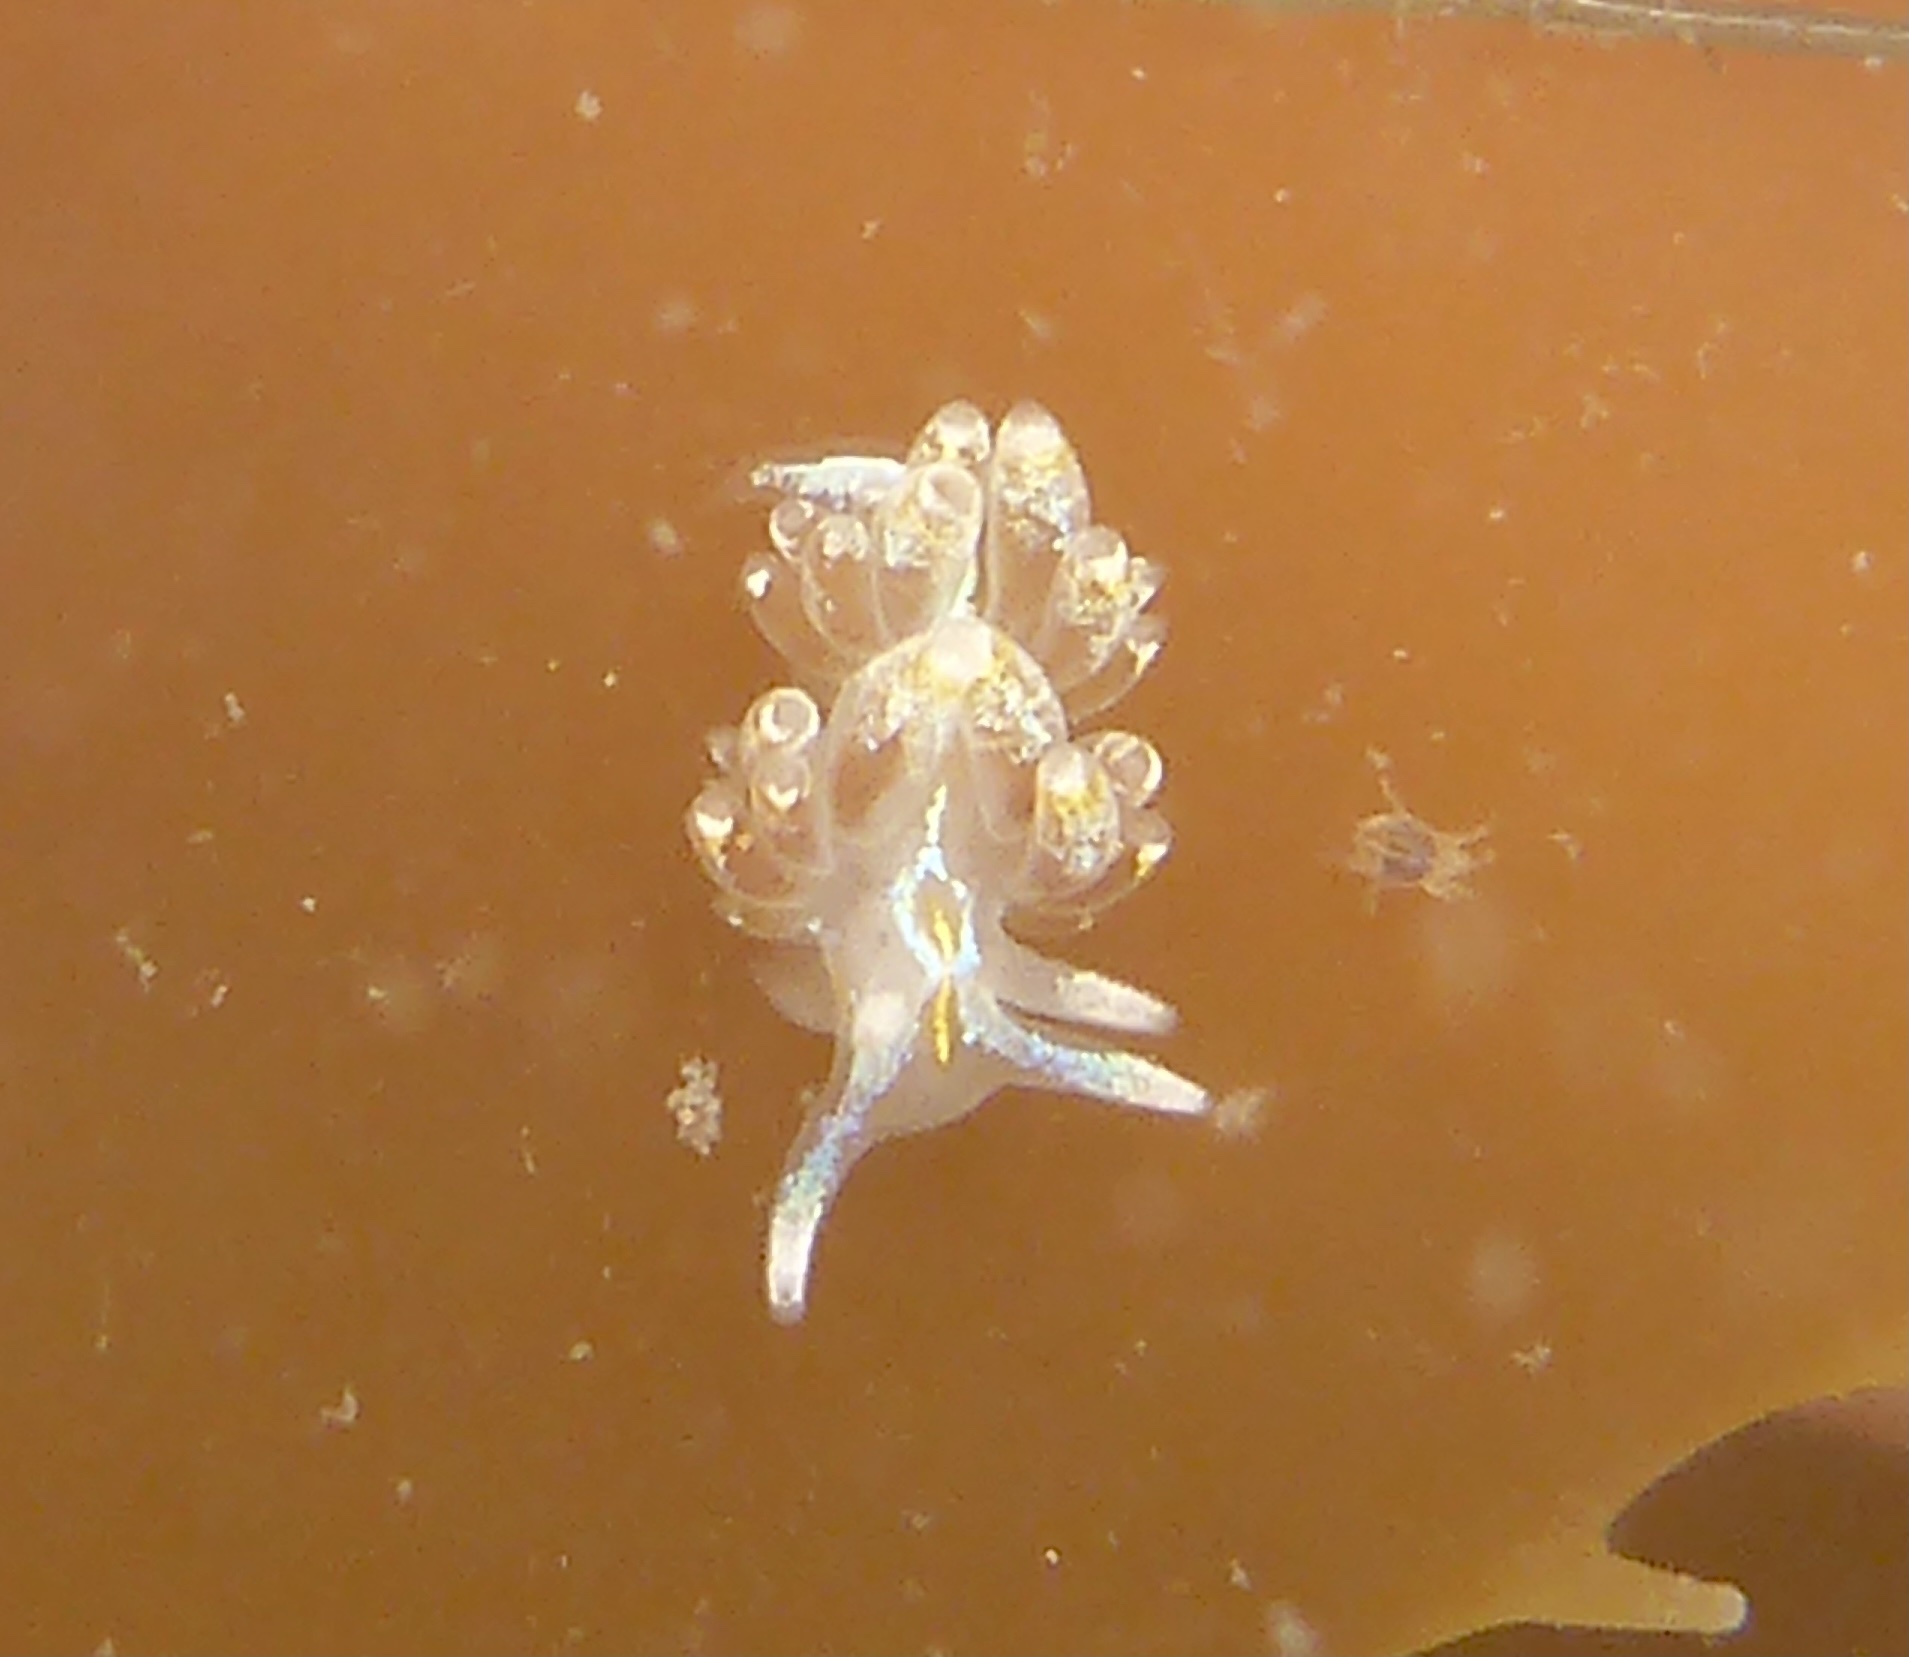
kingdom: Animalia
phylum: Mollusca
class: Gastropoda
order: Nudibranchia
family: Myrrhinidae
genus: Hermissenda
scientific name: Hermissenda opalescens
